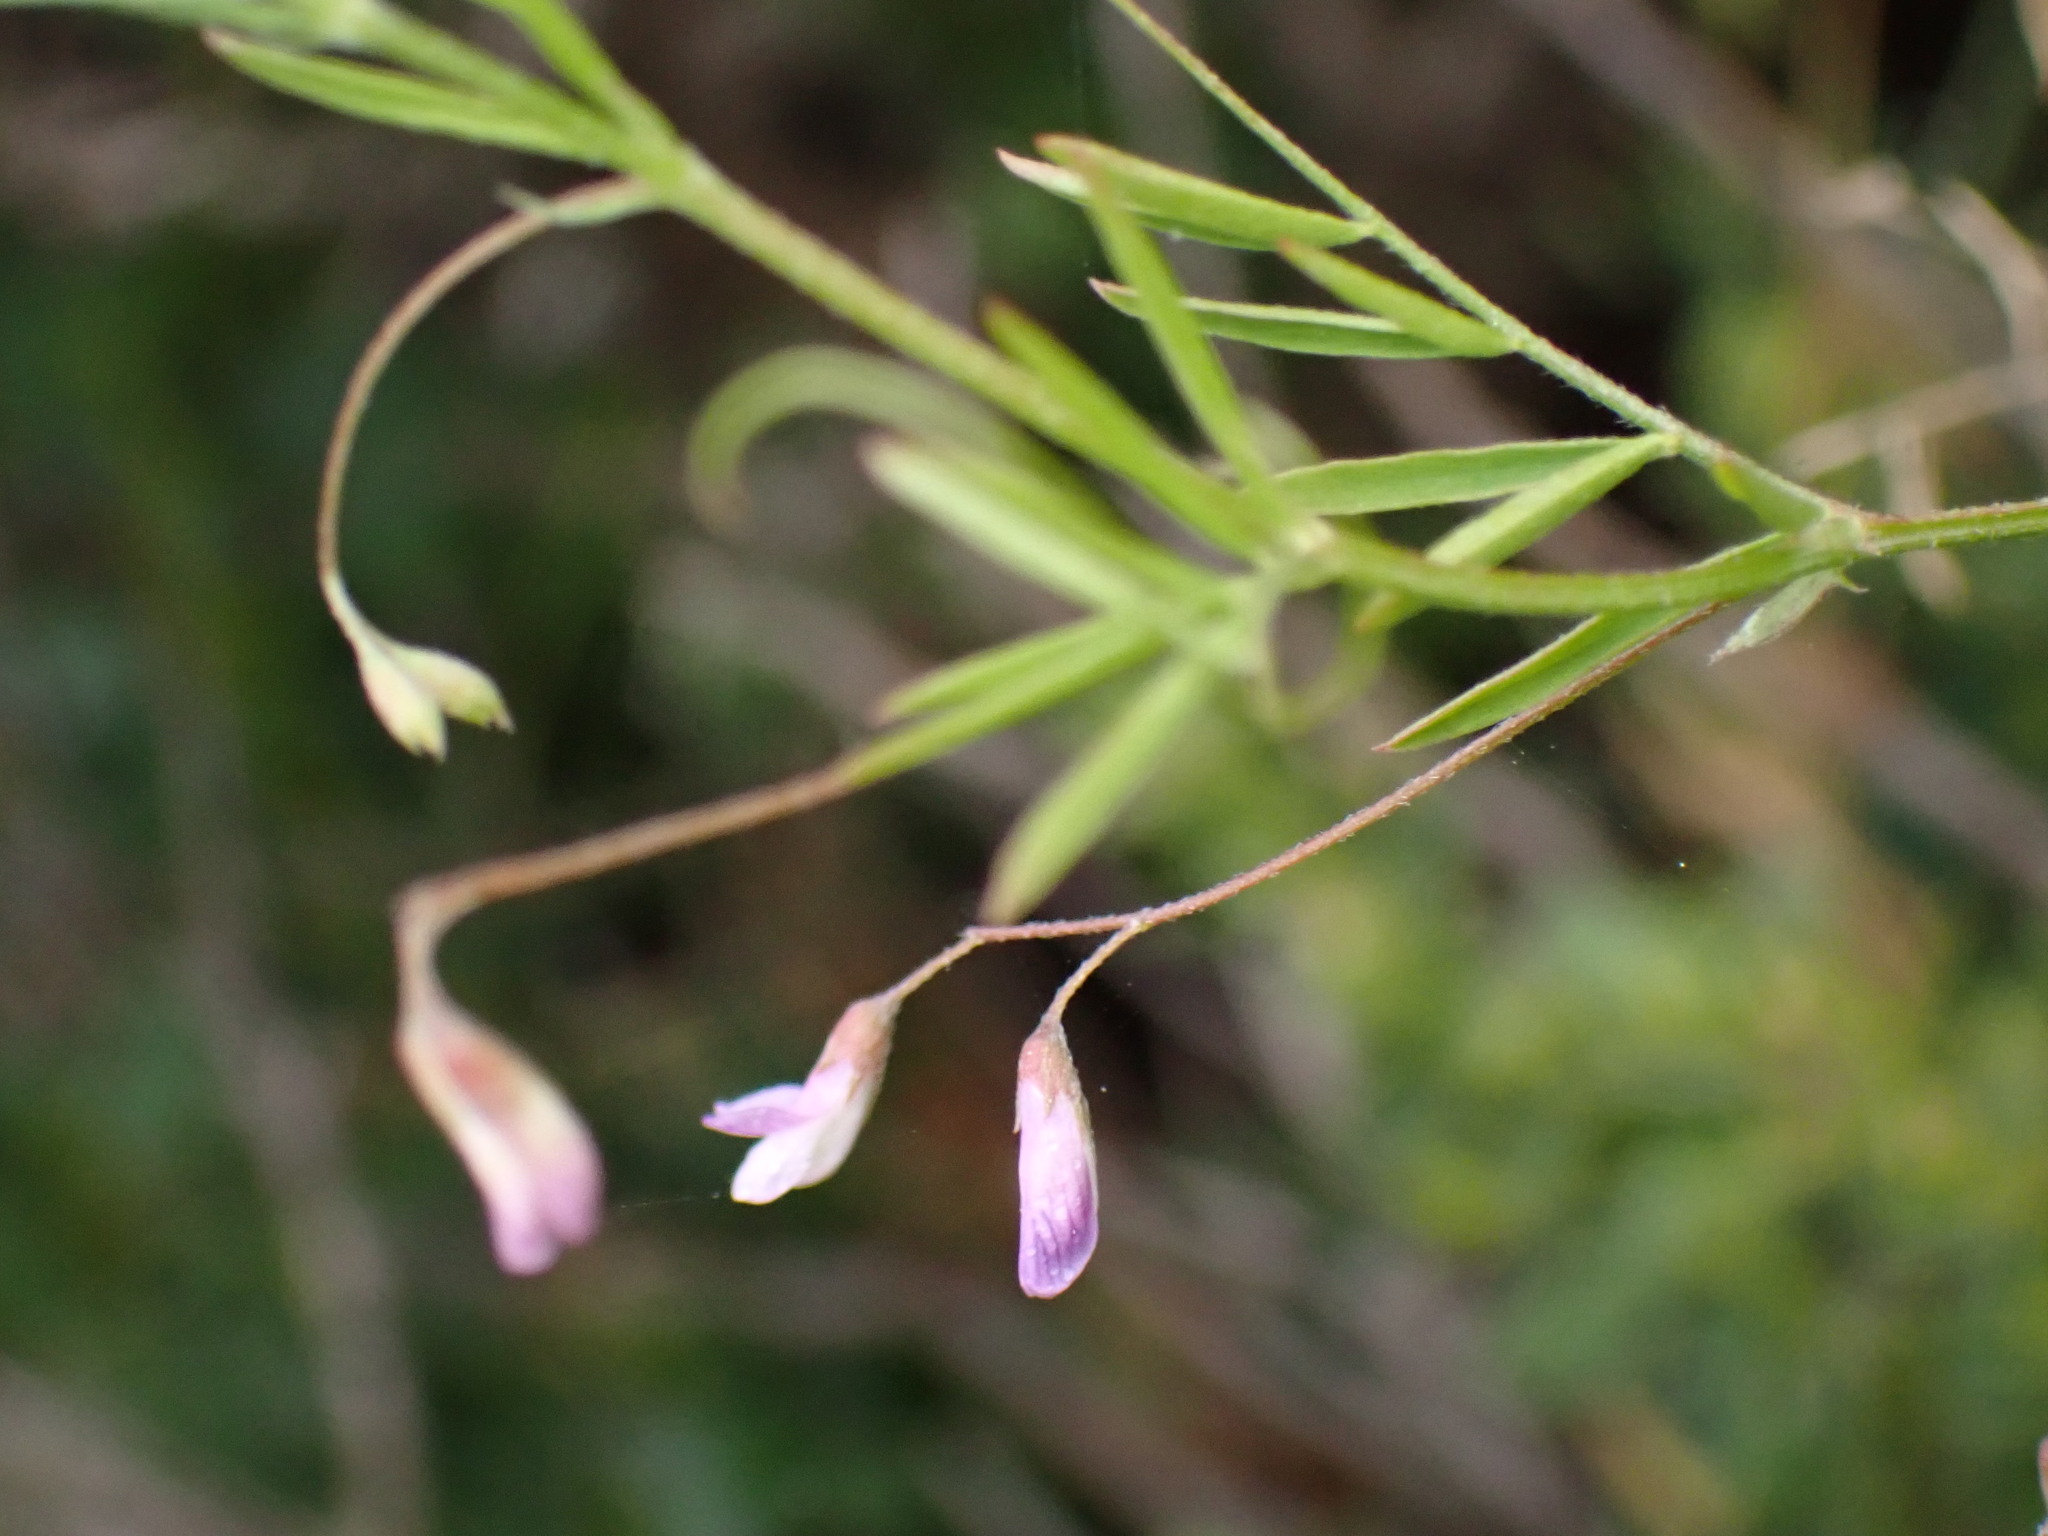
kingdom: Plantae
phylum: Tracheophyta
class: Magnoliopsida
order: Fabales
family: Fabaceae
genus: Vicia
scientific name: Vicia tetrasperma
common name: Smooth tare
